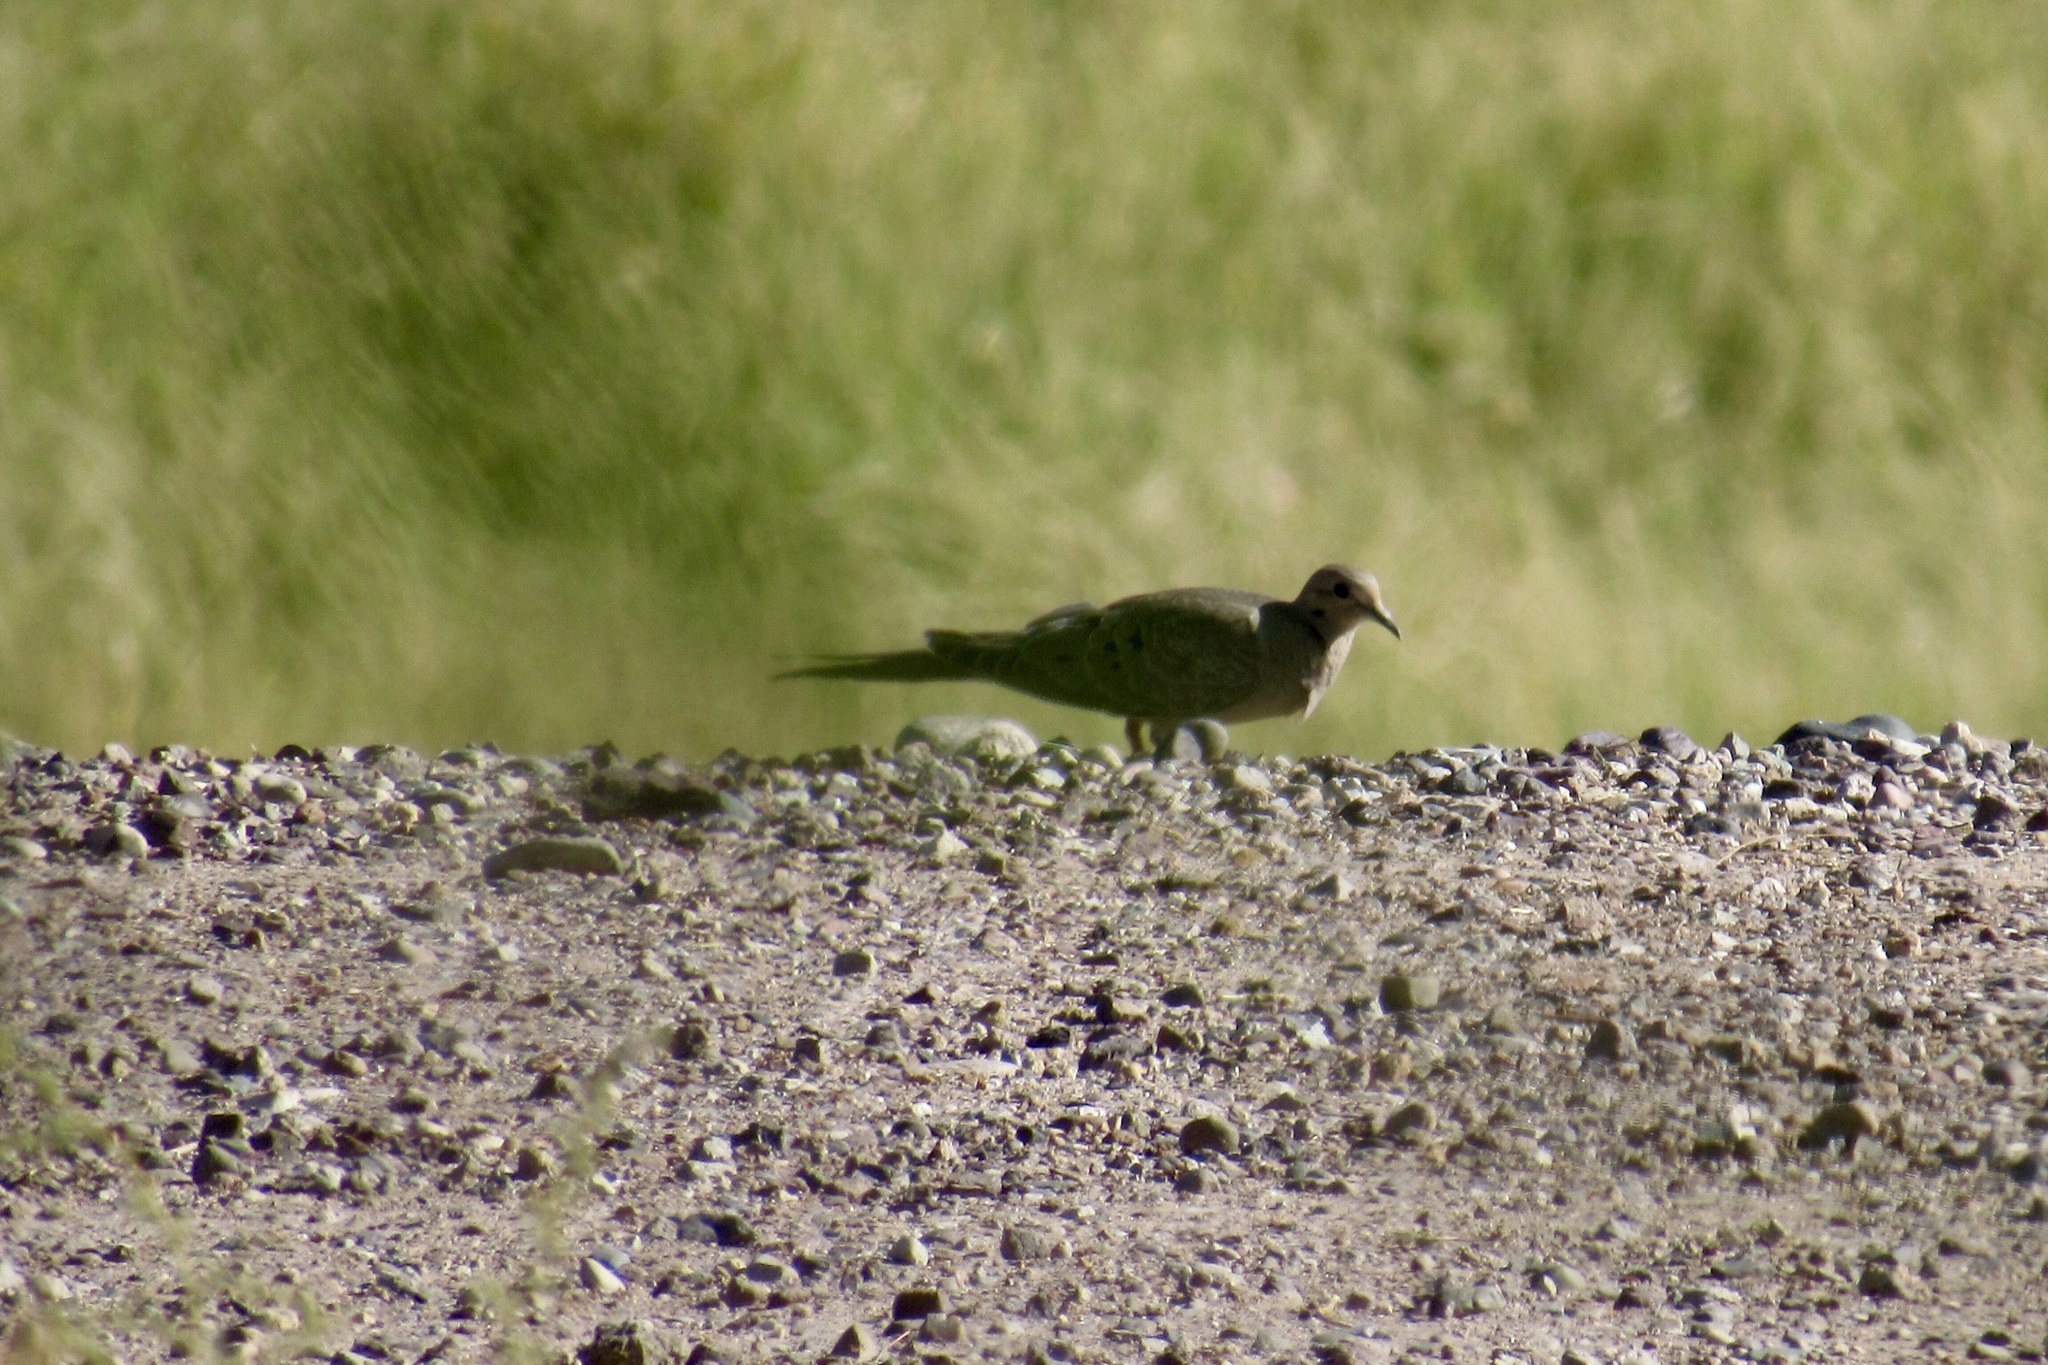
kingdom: Animalia
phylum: Chordata
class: Aves
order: Columbiformes
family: Columbidae
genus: Zenaida
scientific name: Zenaida macroura
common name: Mourning dove
